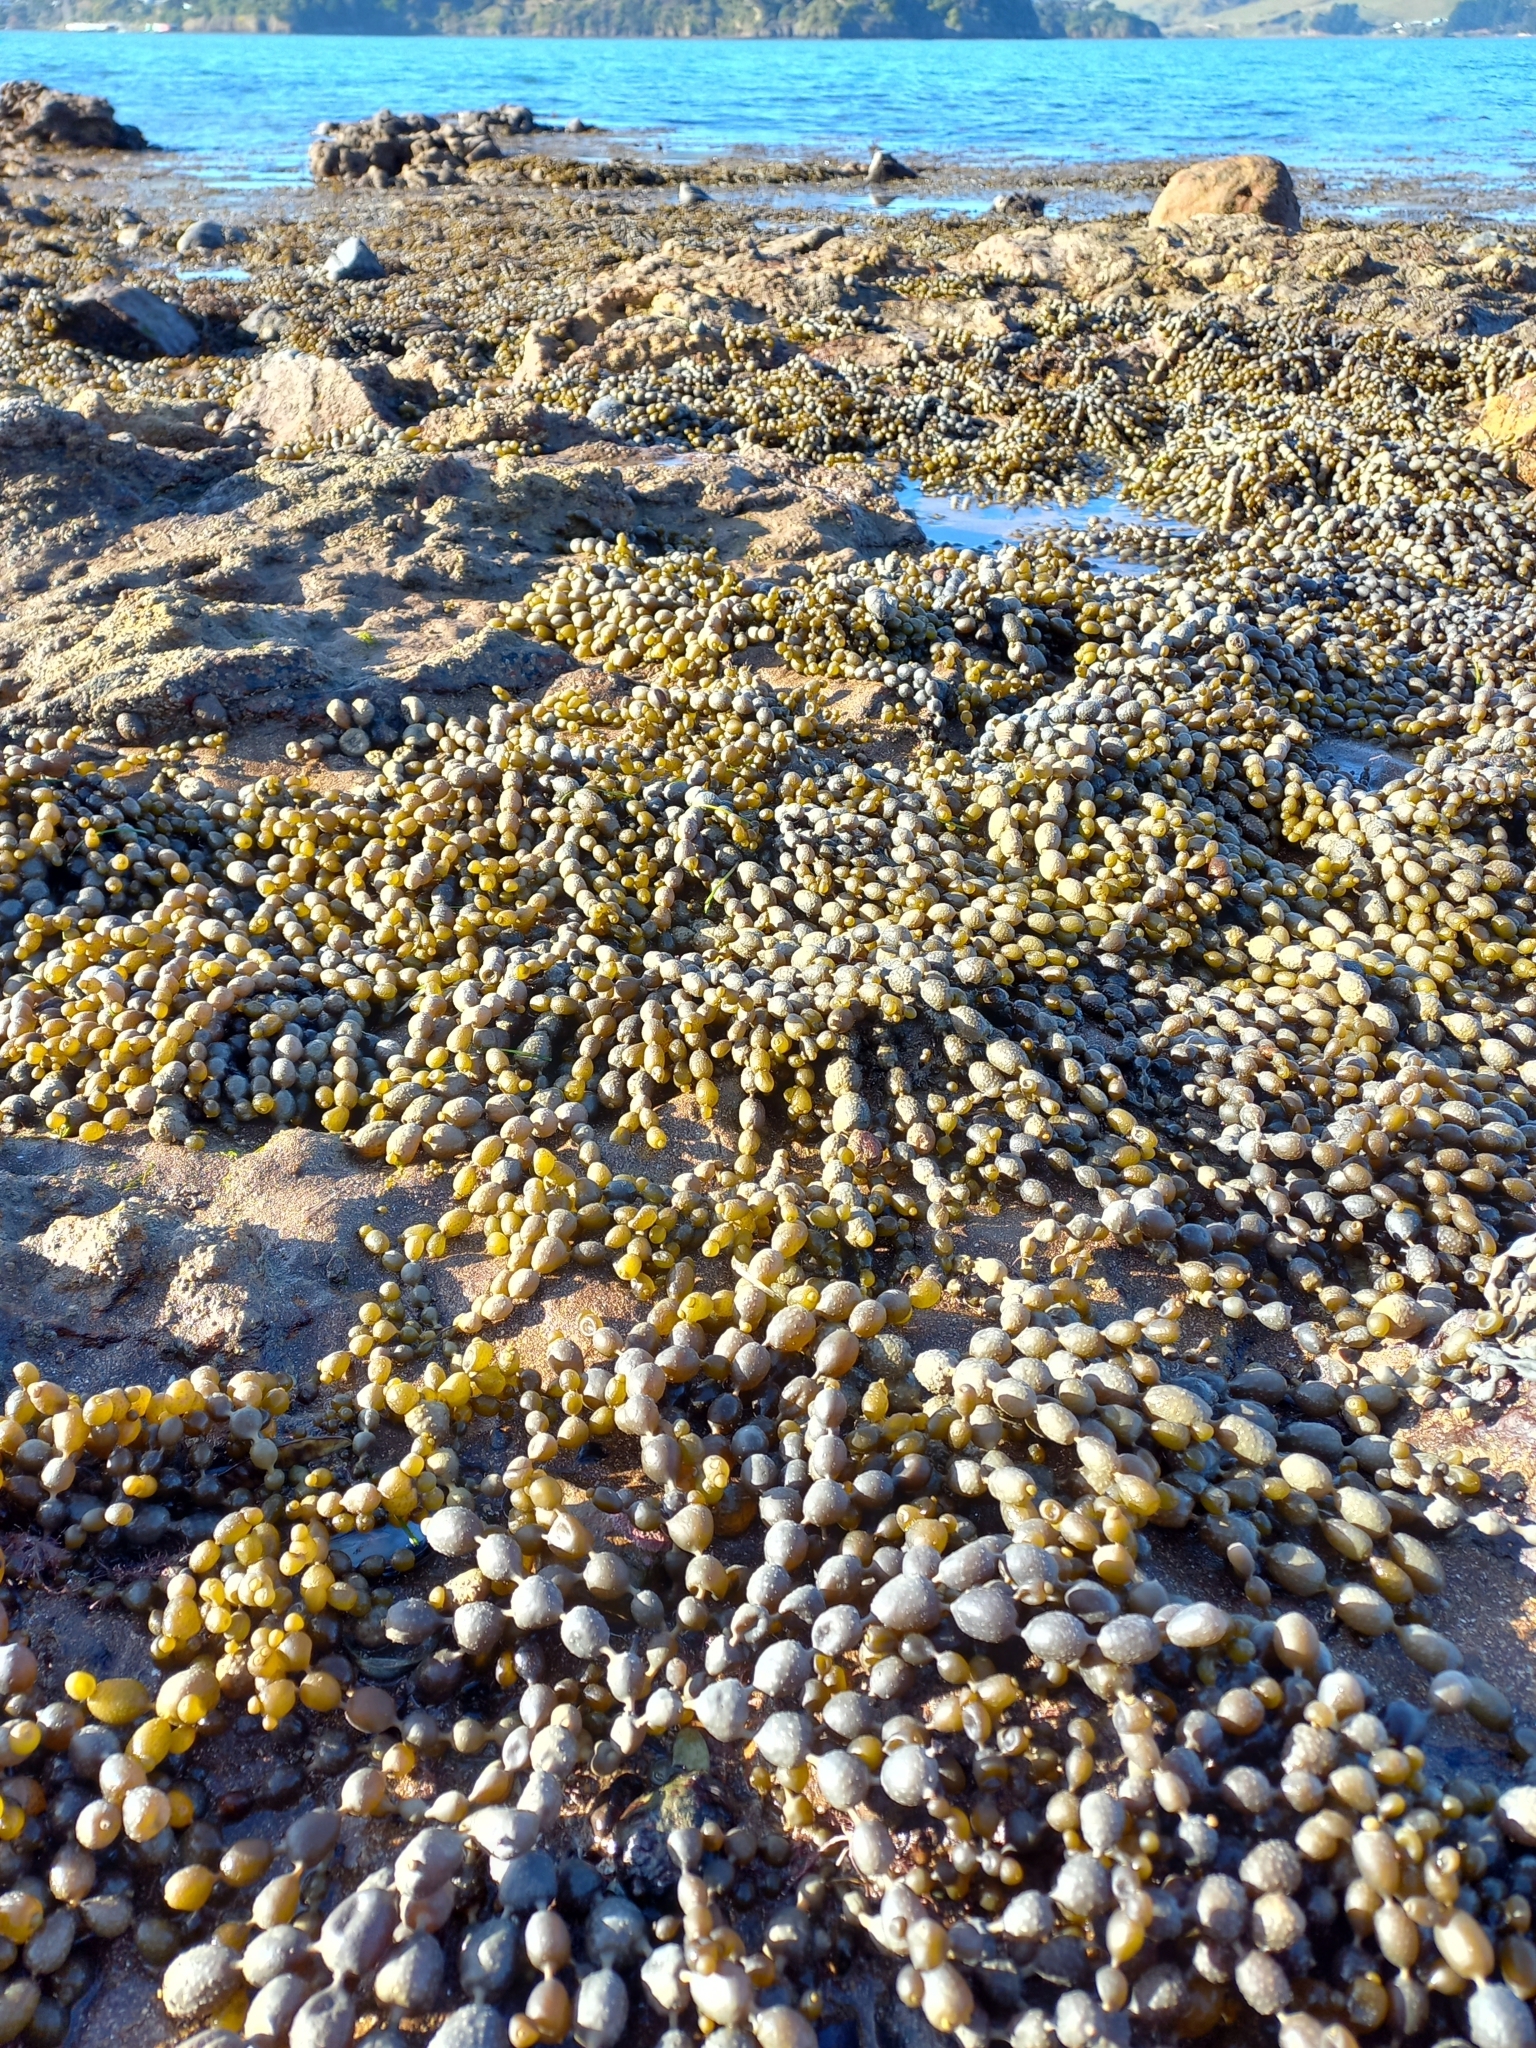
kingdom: Chromista
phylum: Ochrophyta
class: Phaeophyceae
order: Fucales
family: Hormosiraceae
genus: Hormosira
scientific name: Hormosira banksii
